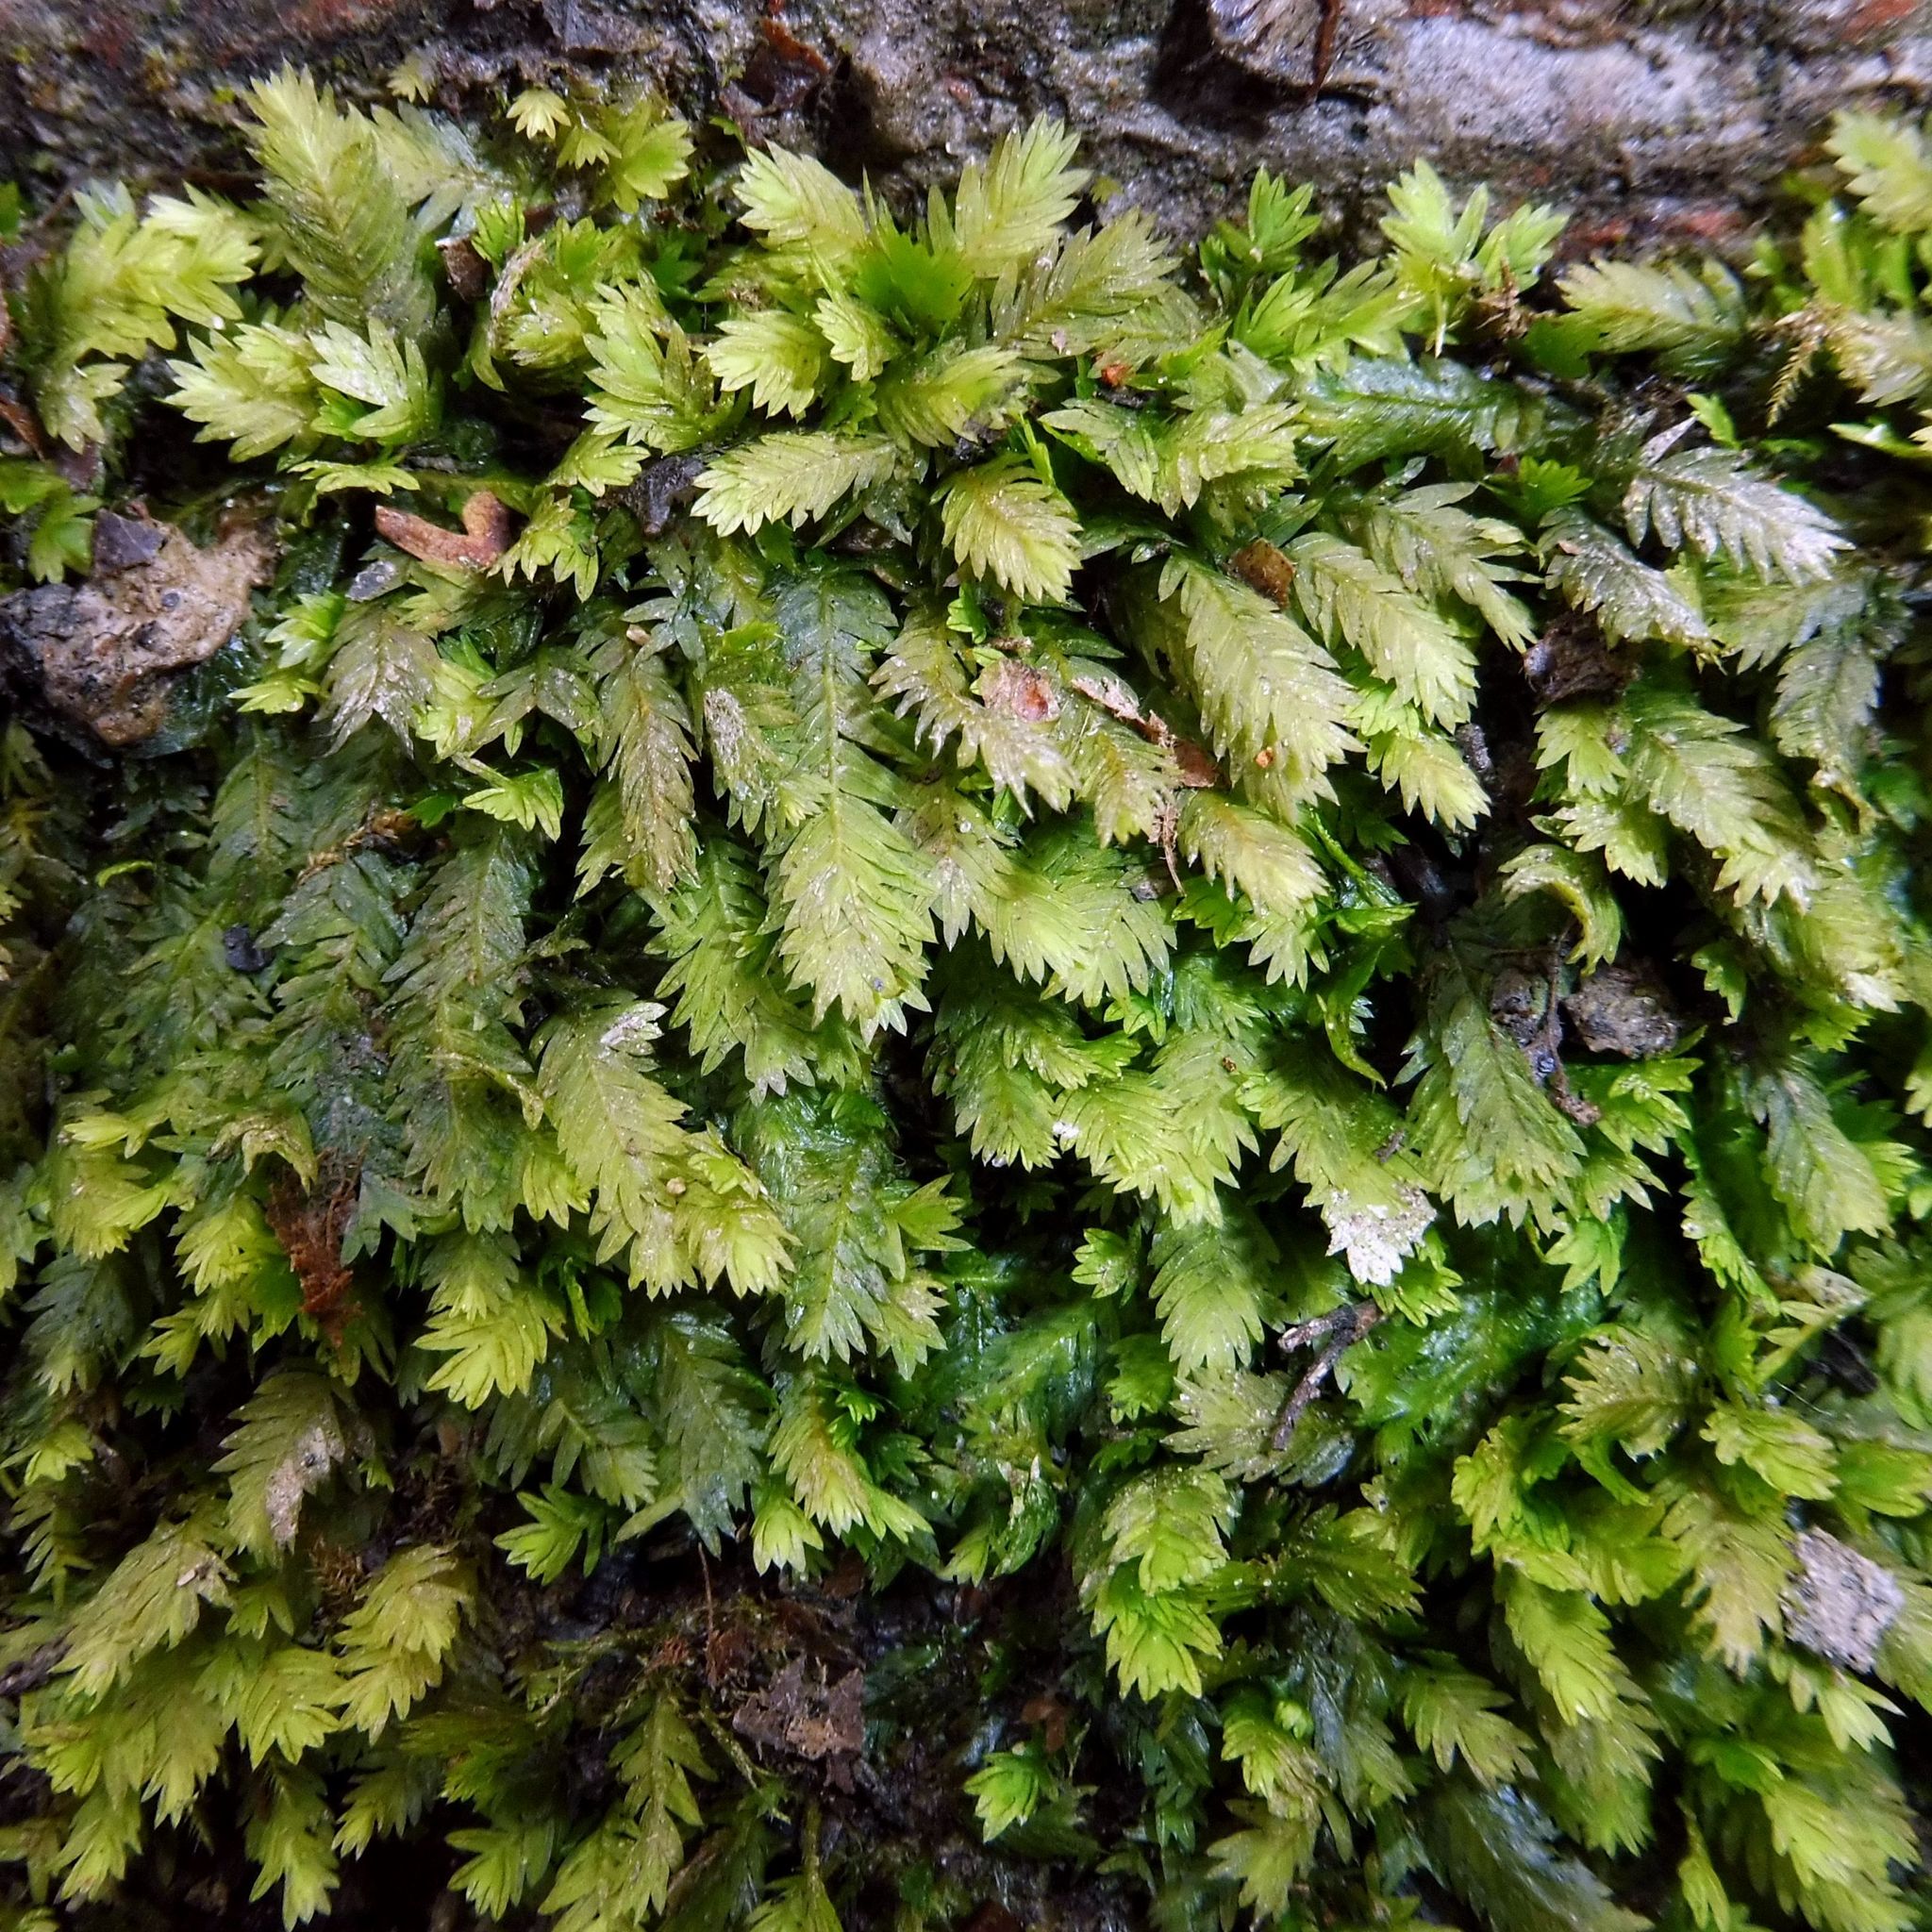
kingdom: Plantae
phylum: Bryophyta
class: Bryopsida
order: Dicranales
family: Fissidentaceae
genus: Fissidens
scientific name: Fissidens taxifolius
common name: Yew-leaved pocket moss
